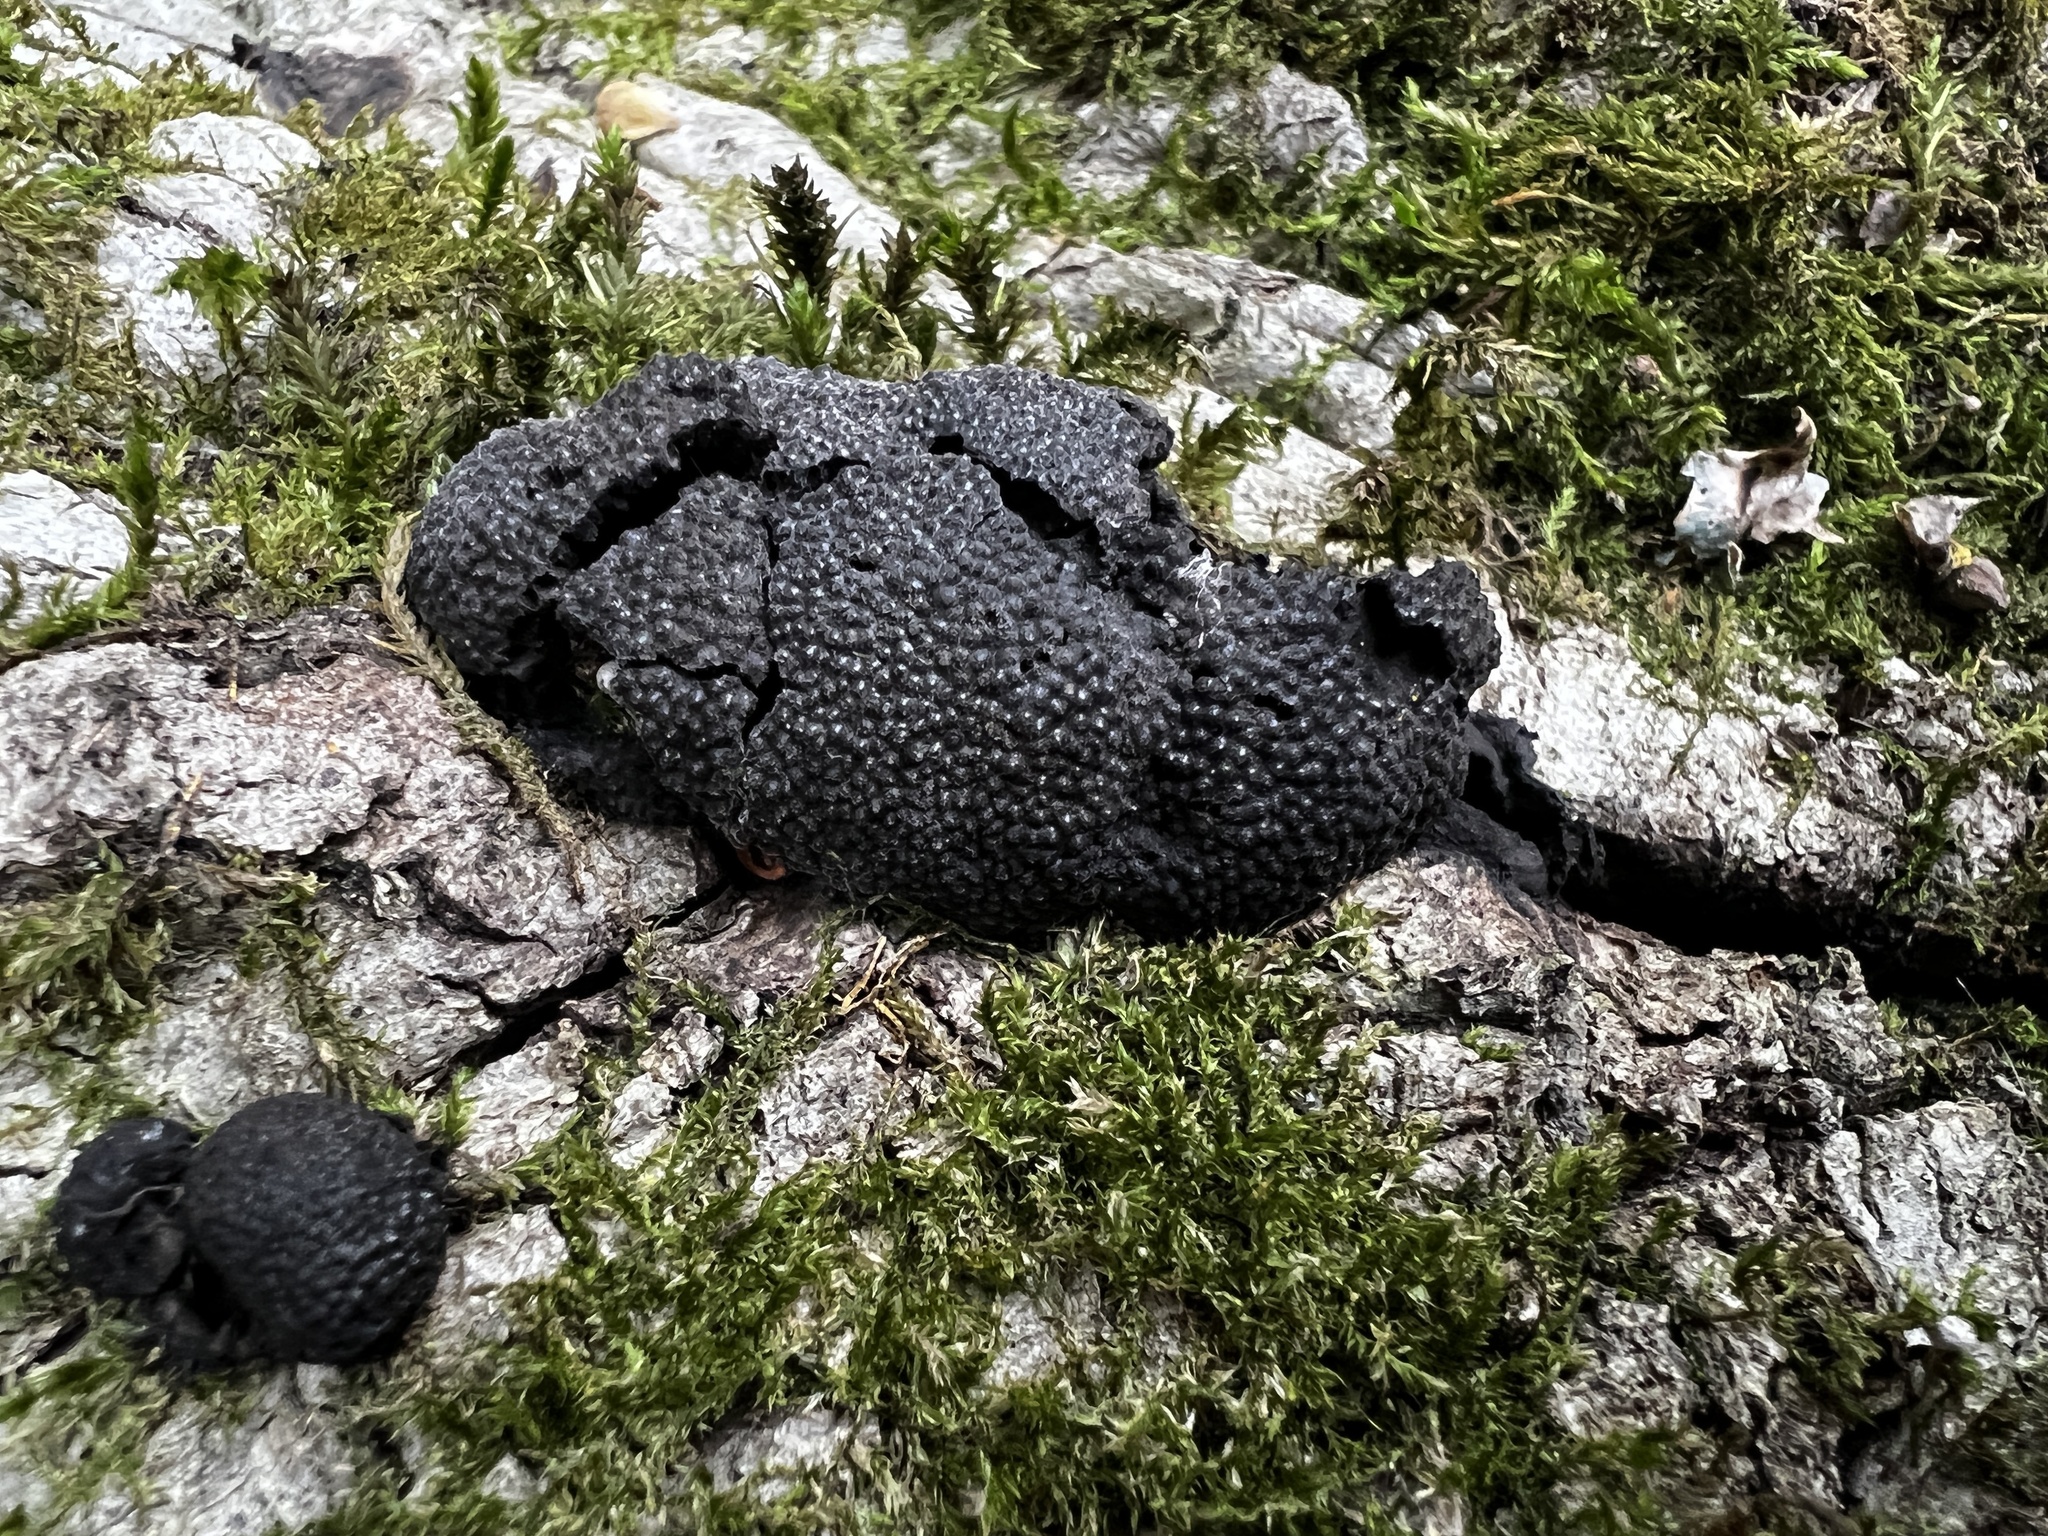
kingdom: Fungi
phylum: Ascomycota
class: Sordariomycetes
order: Xylariales
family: Hypoxylaceae
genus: Annulohypoxylon
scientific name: Annulohypoxylon thouarsianum
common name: Cramp balls
